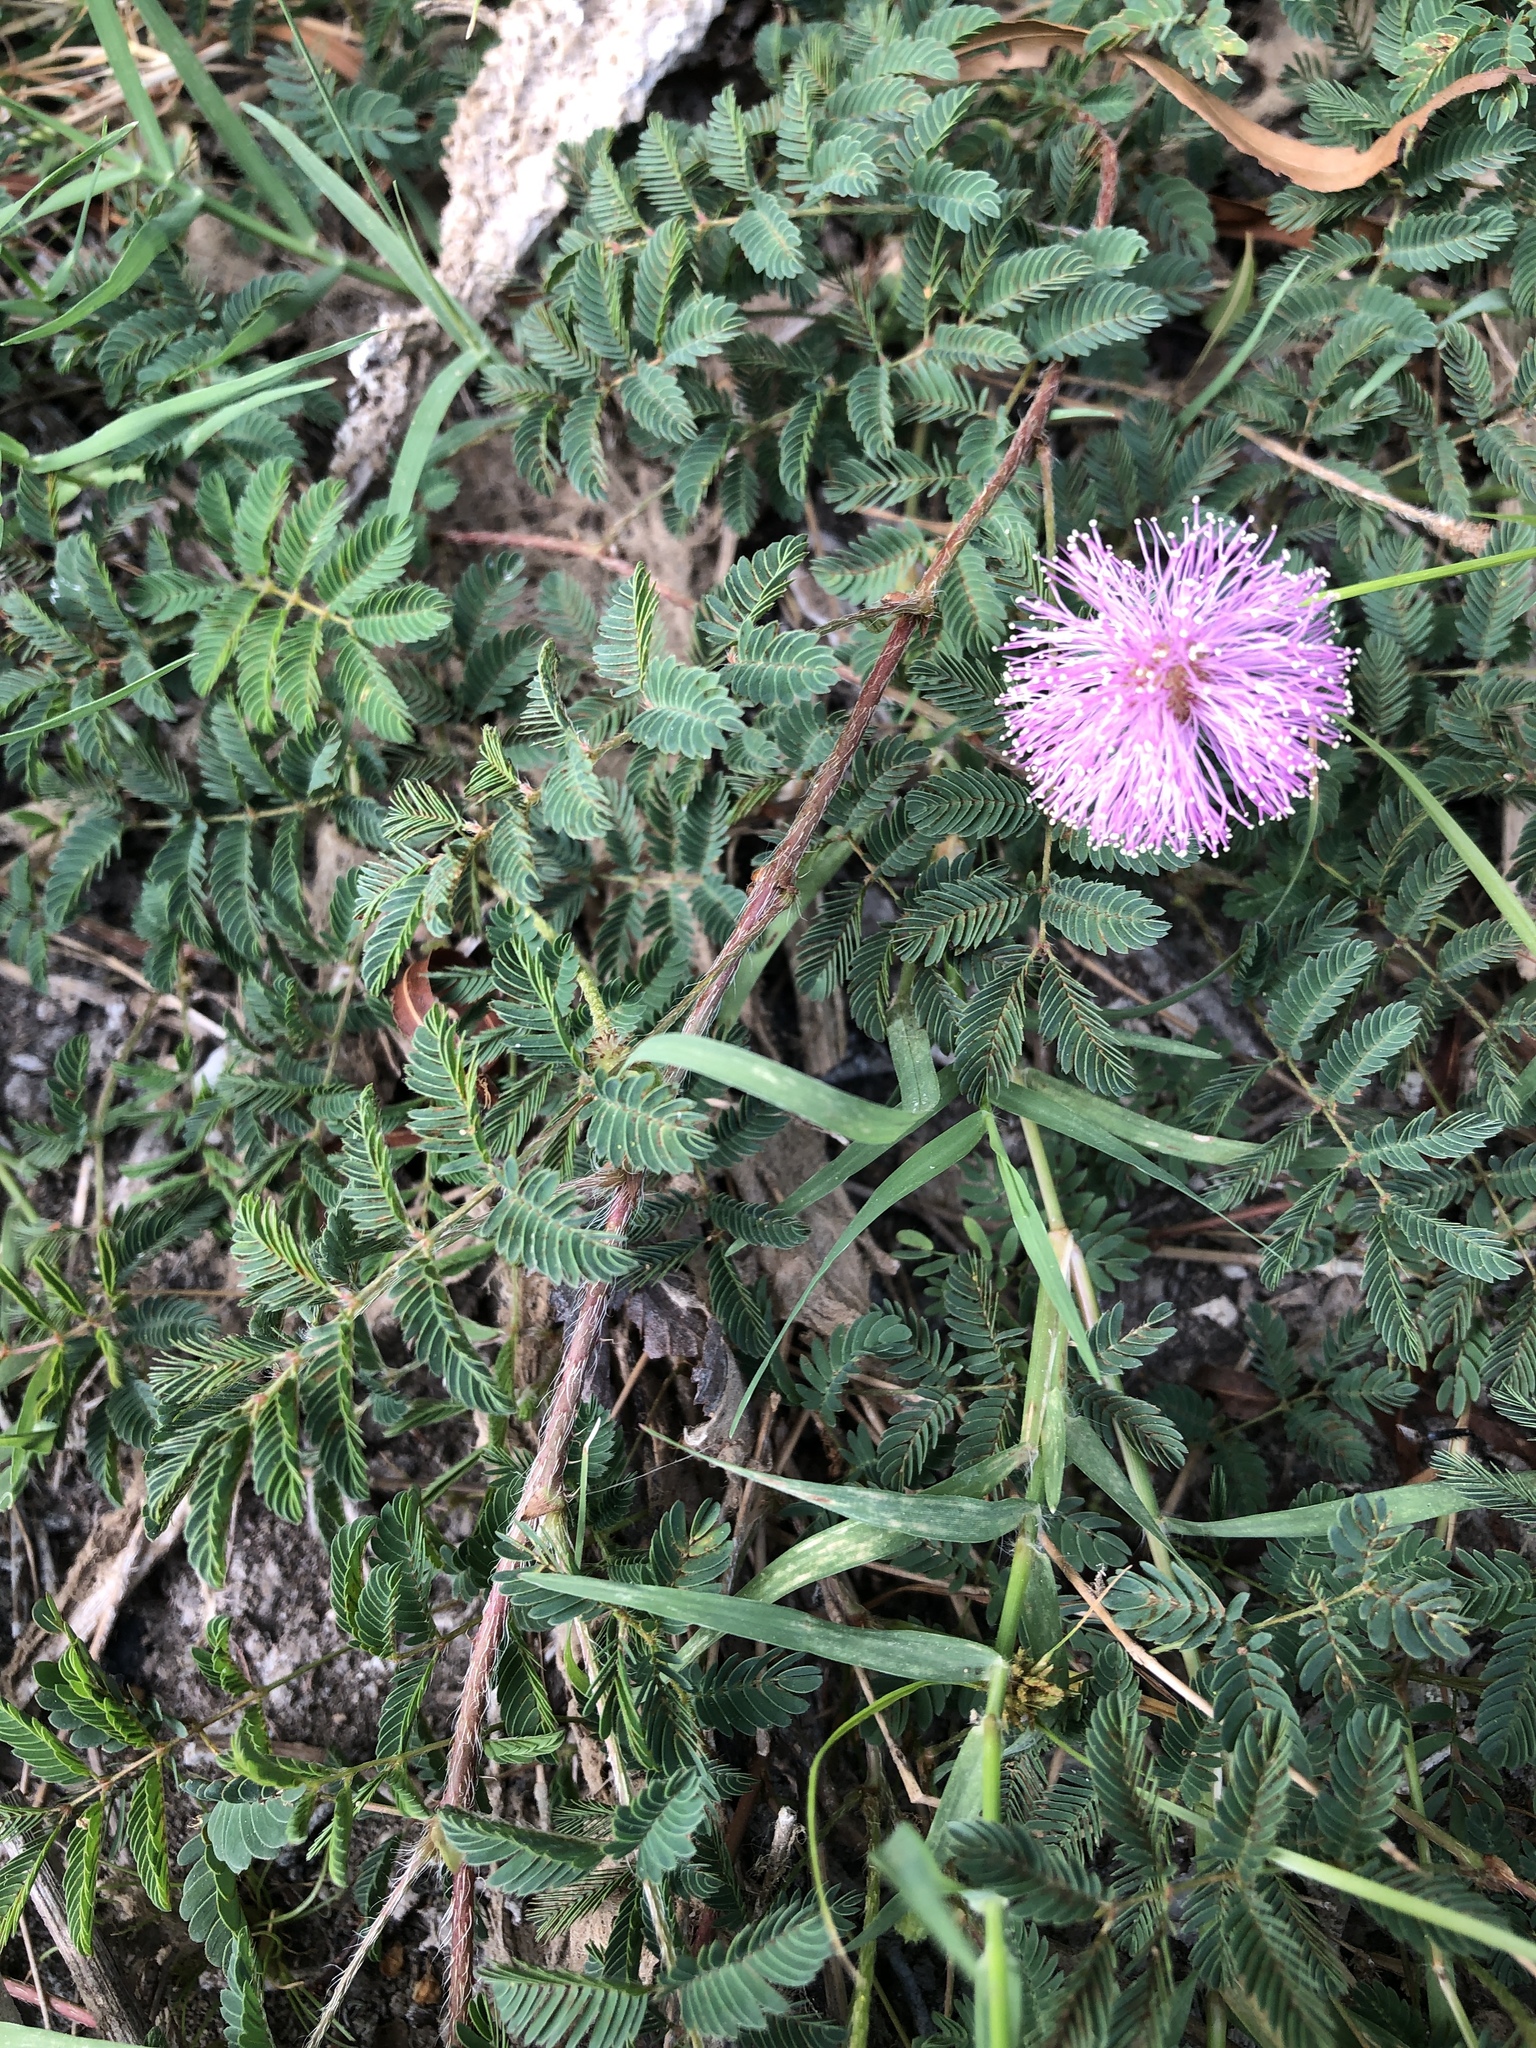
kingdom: Plantae
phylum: Tracheophyta
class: Magnoliopsida
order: Fabales
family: Fabaceae
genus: Mimosa
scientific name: Mimosa strigillosa
